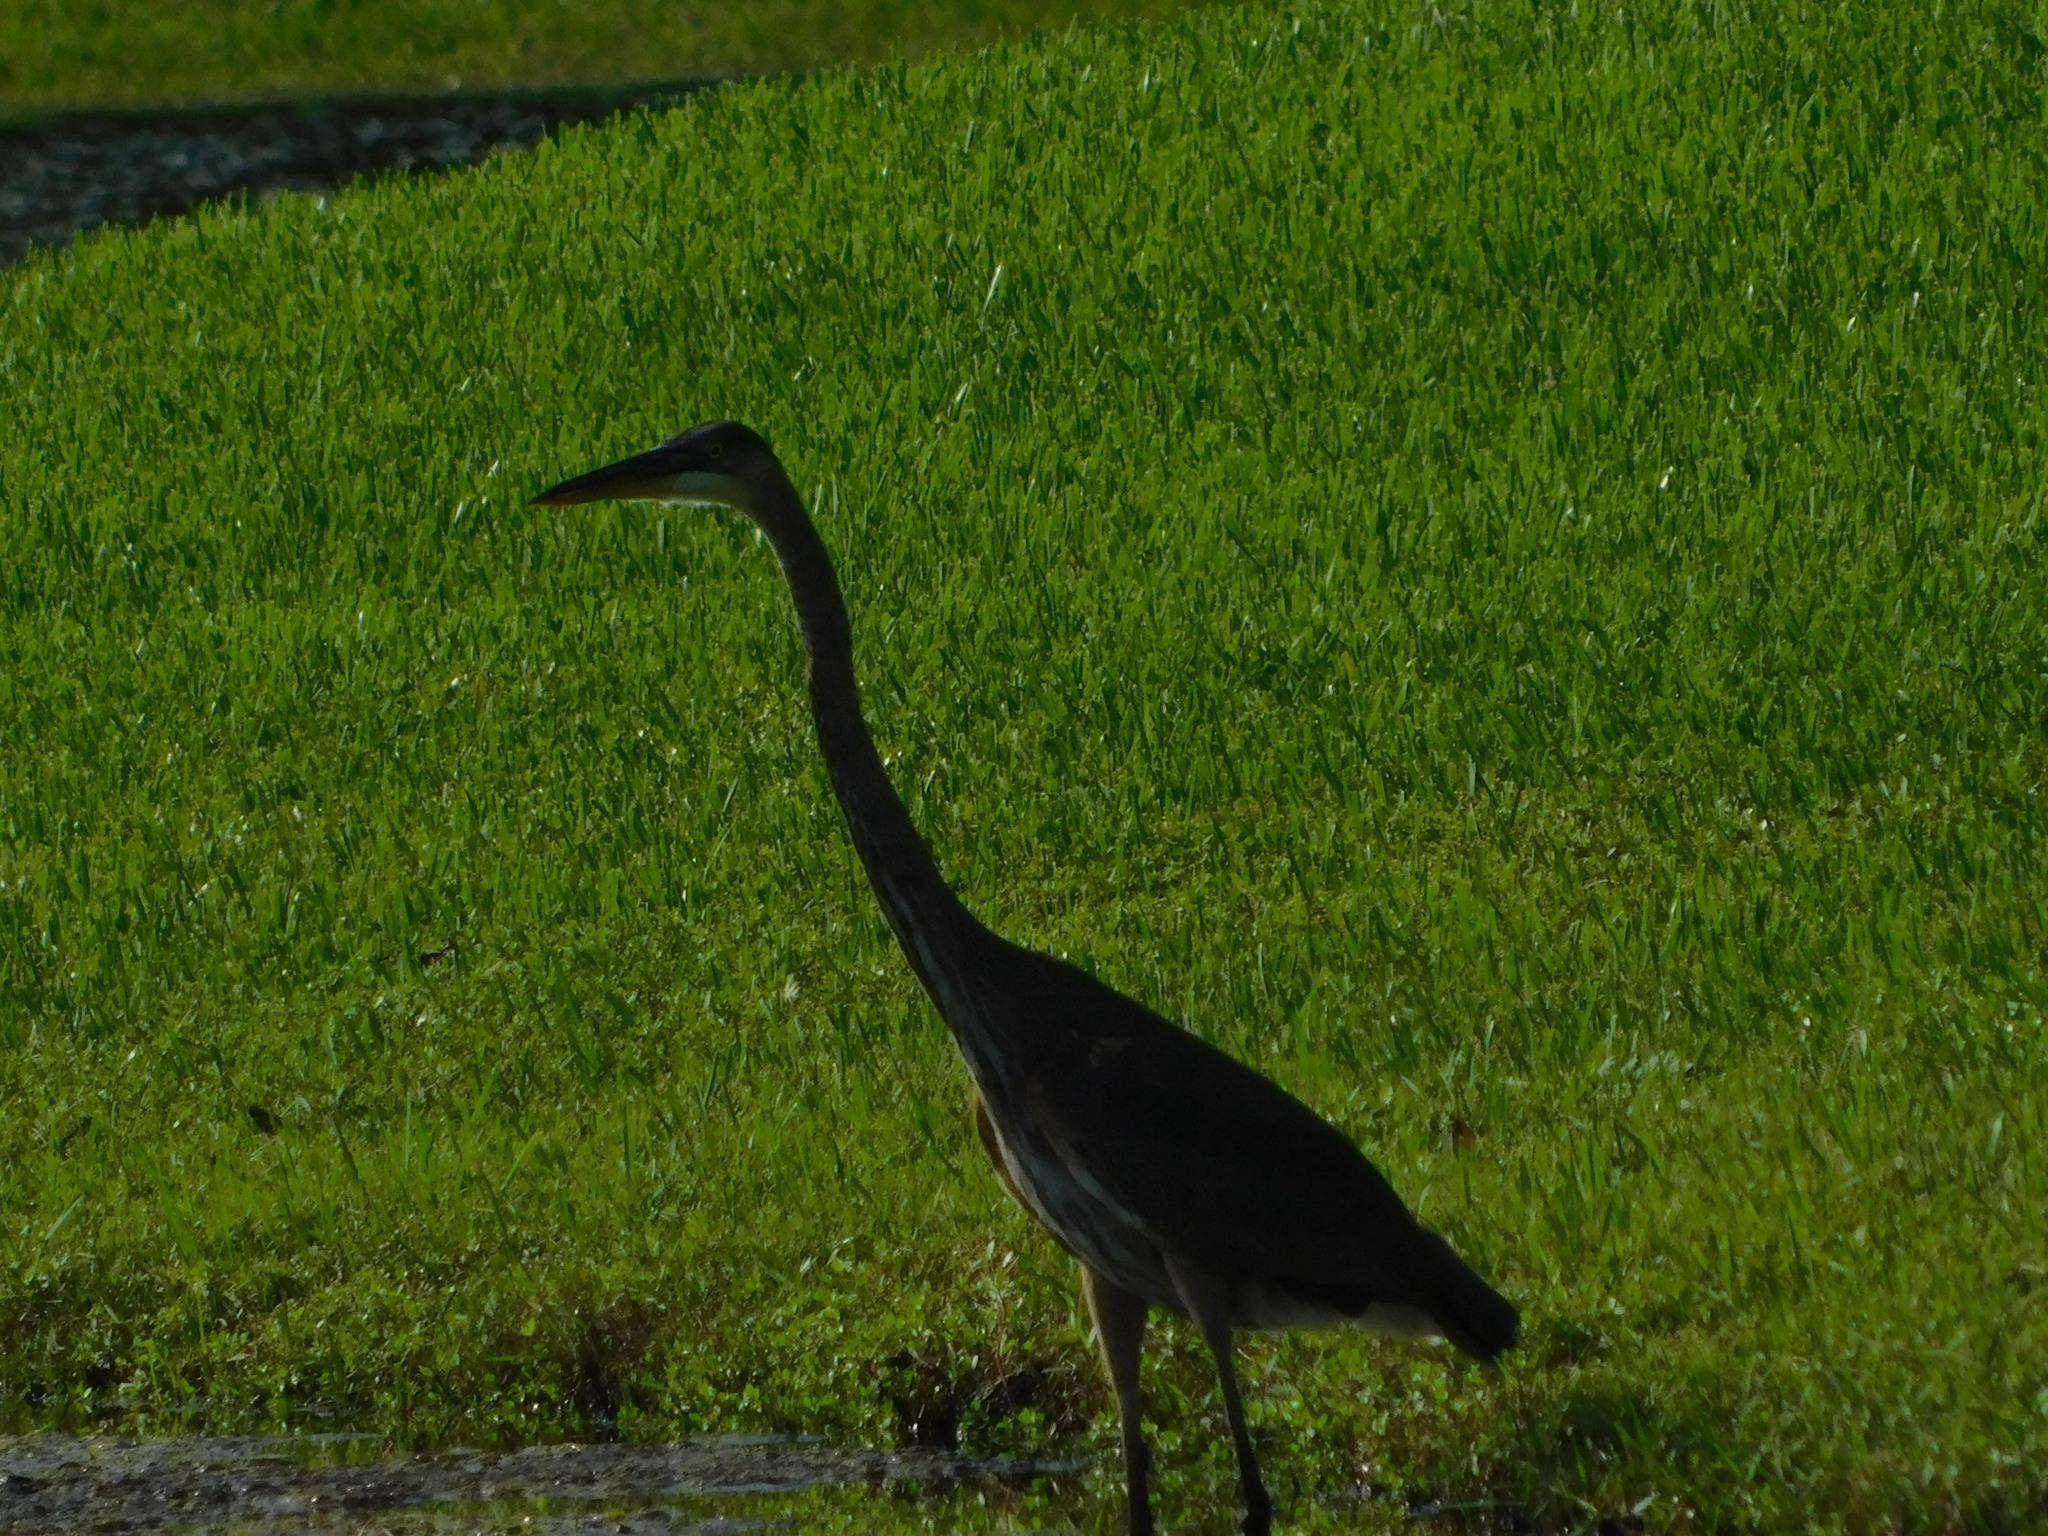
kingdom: Animalia
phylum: Chordata
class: Aves
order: Pelecaniformes
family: Ardeidae
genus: Ardea
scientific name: Ardea herodias
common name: Great blue heron
